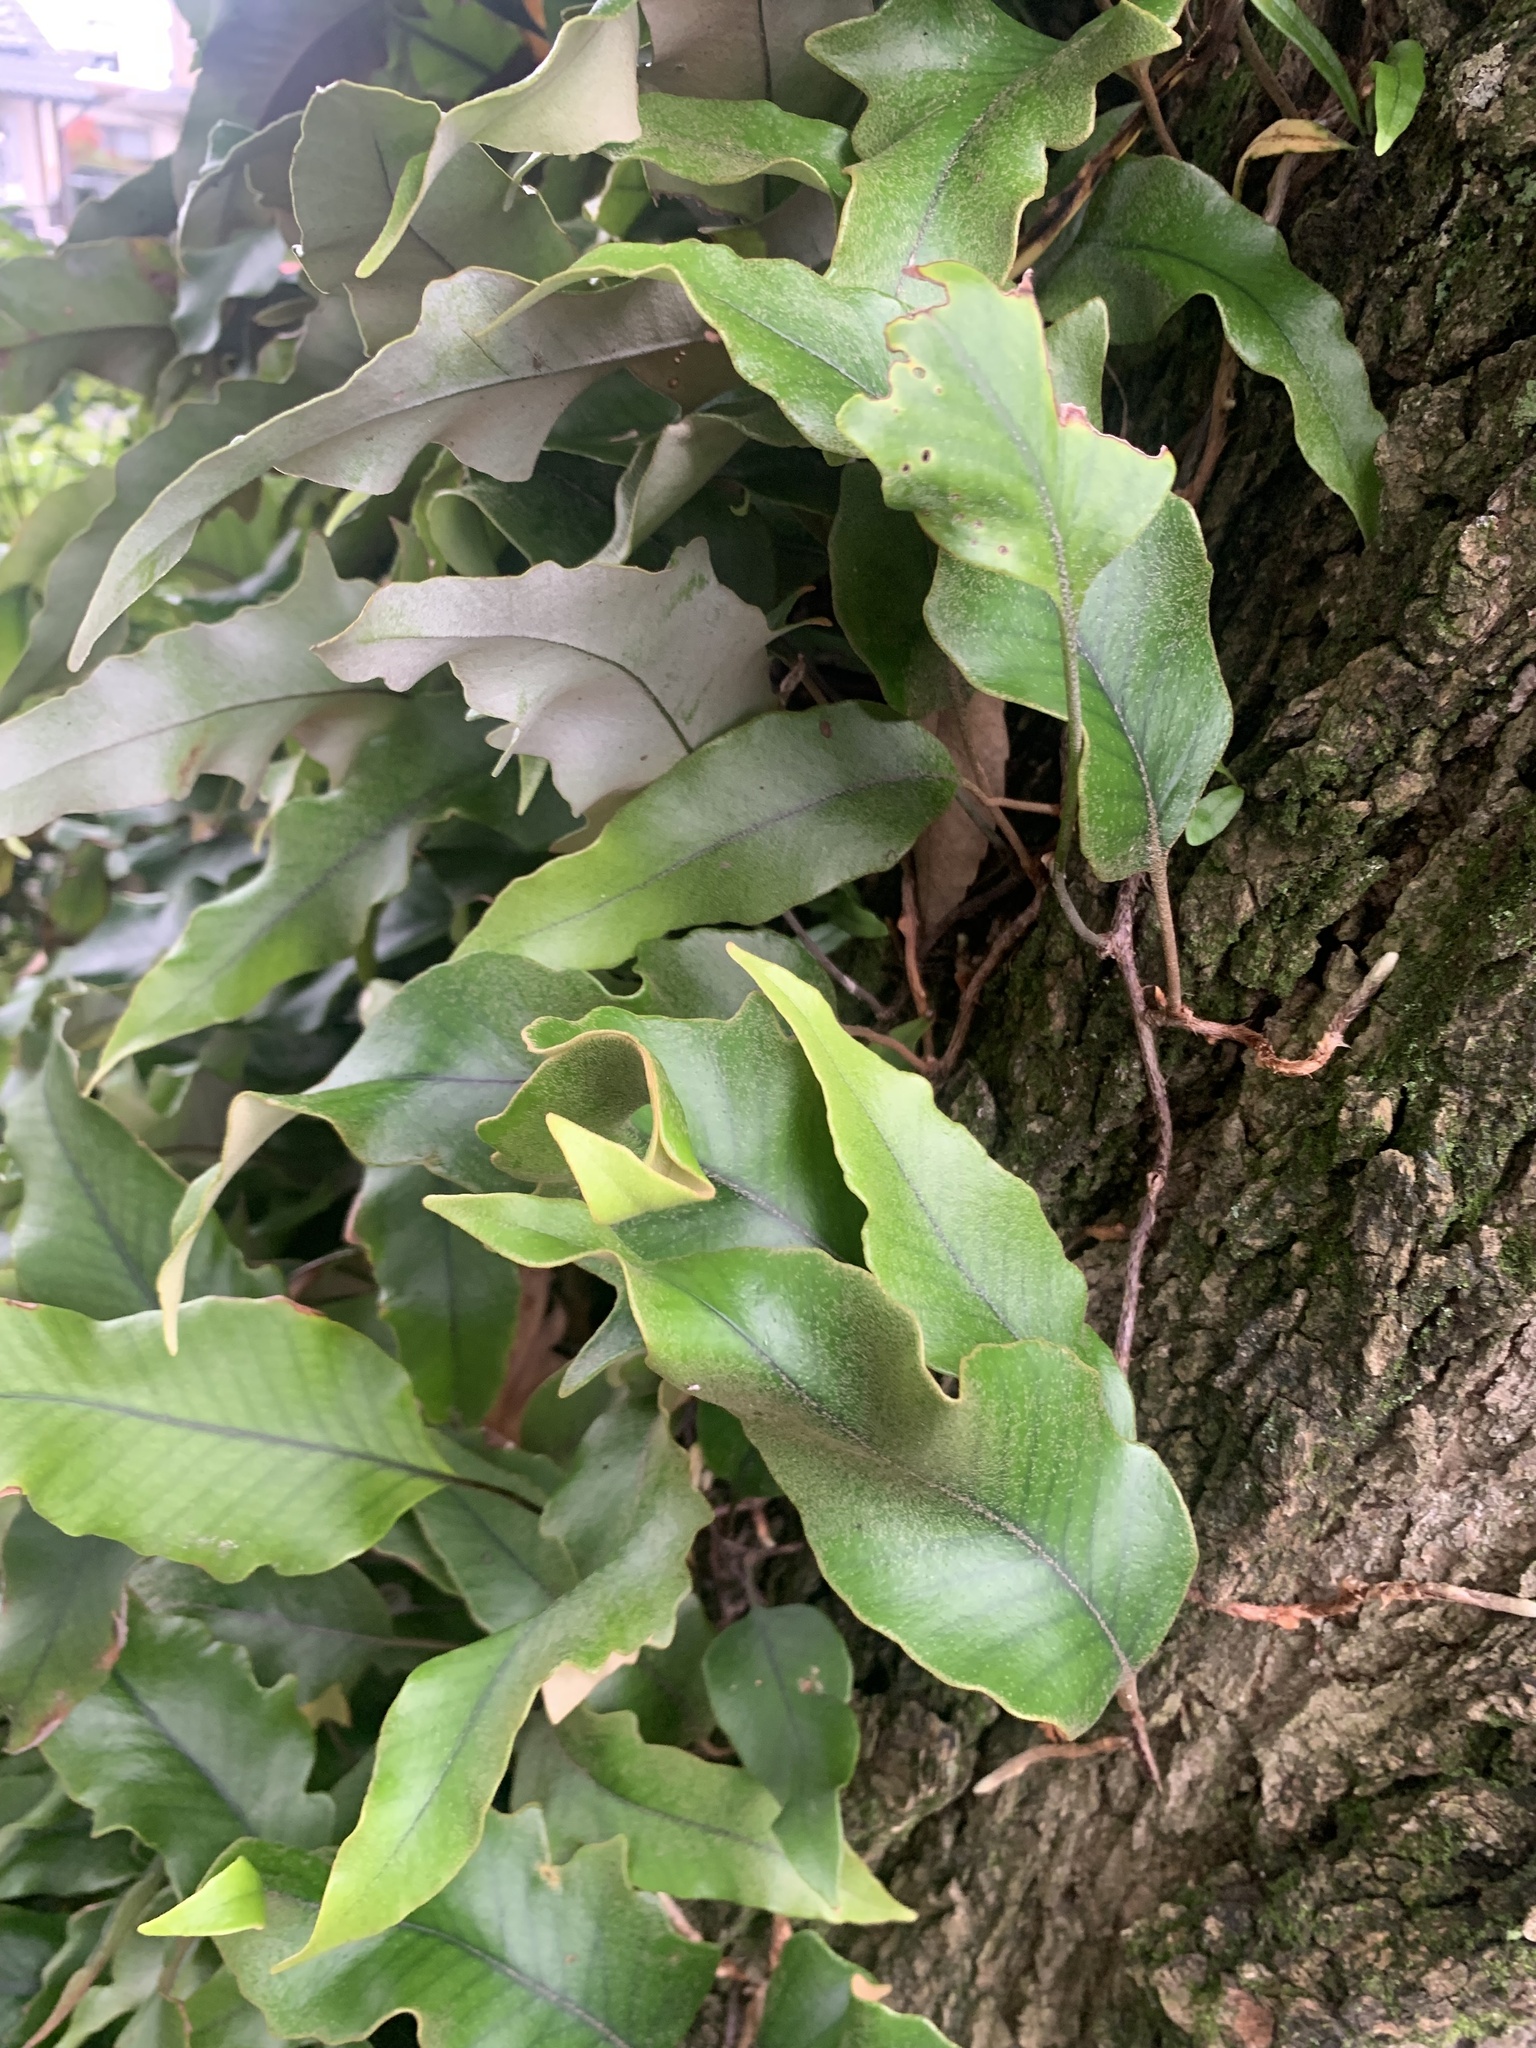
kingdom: Plantae
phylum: Tracheophyta
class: Polypodiopsida
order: Polypodiales
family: Polypodiaceae
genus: Pyrrosia
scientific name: Pyrrosia lingua
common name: Felt fern
